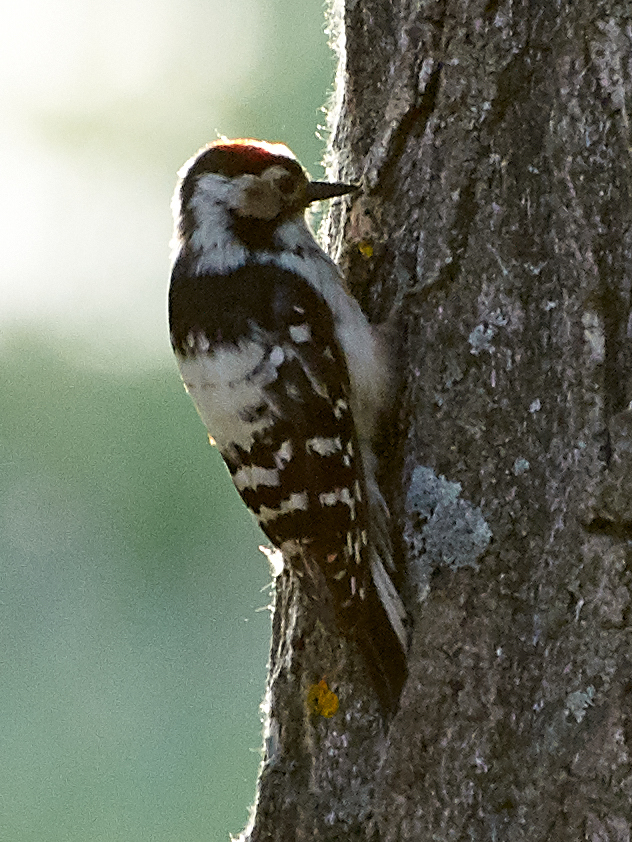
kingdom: Animalia
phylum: Chordata
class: Aves
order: Piciformes
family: Picidae
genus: Dryobates
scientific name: Dryobates minor
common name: Lesser spotted woodpecker
